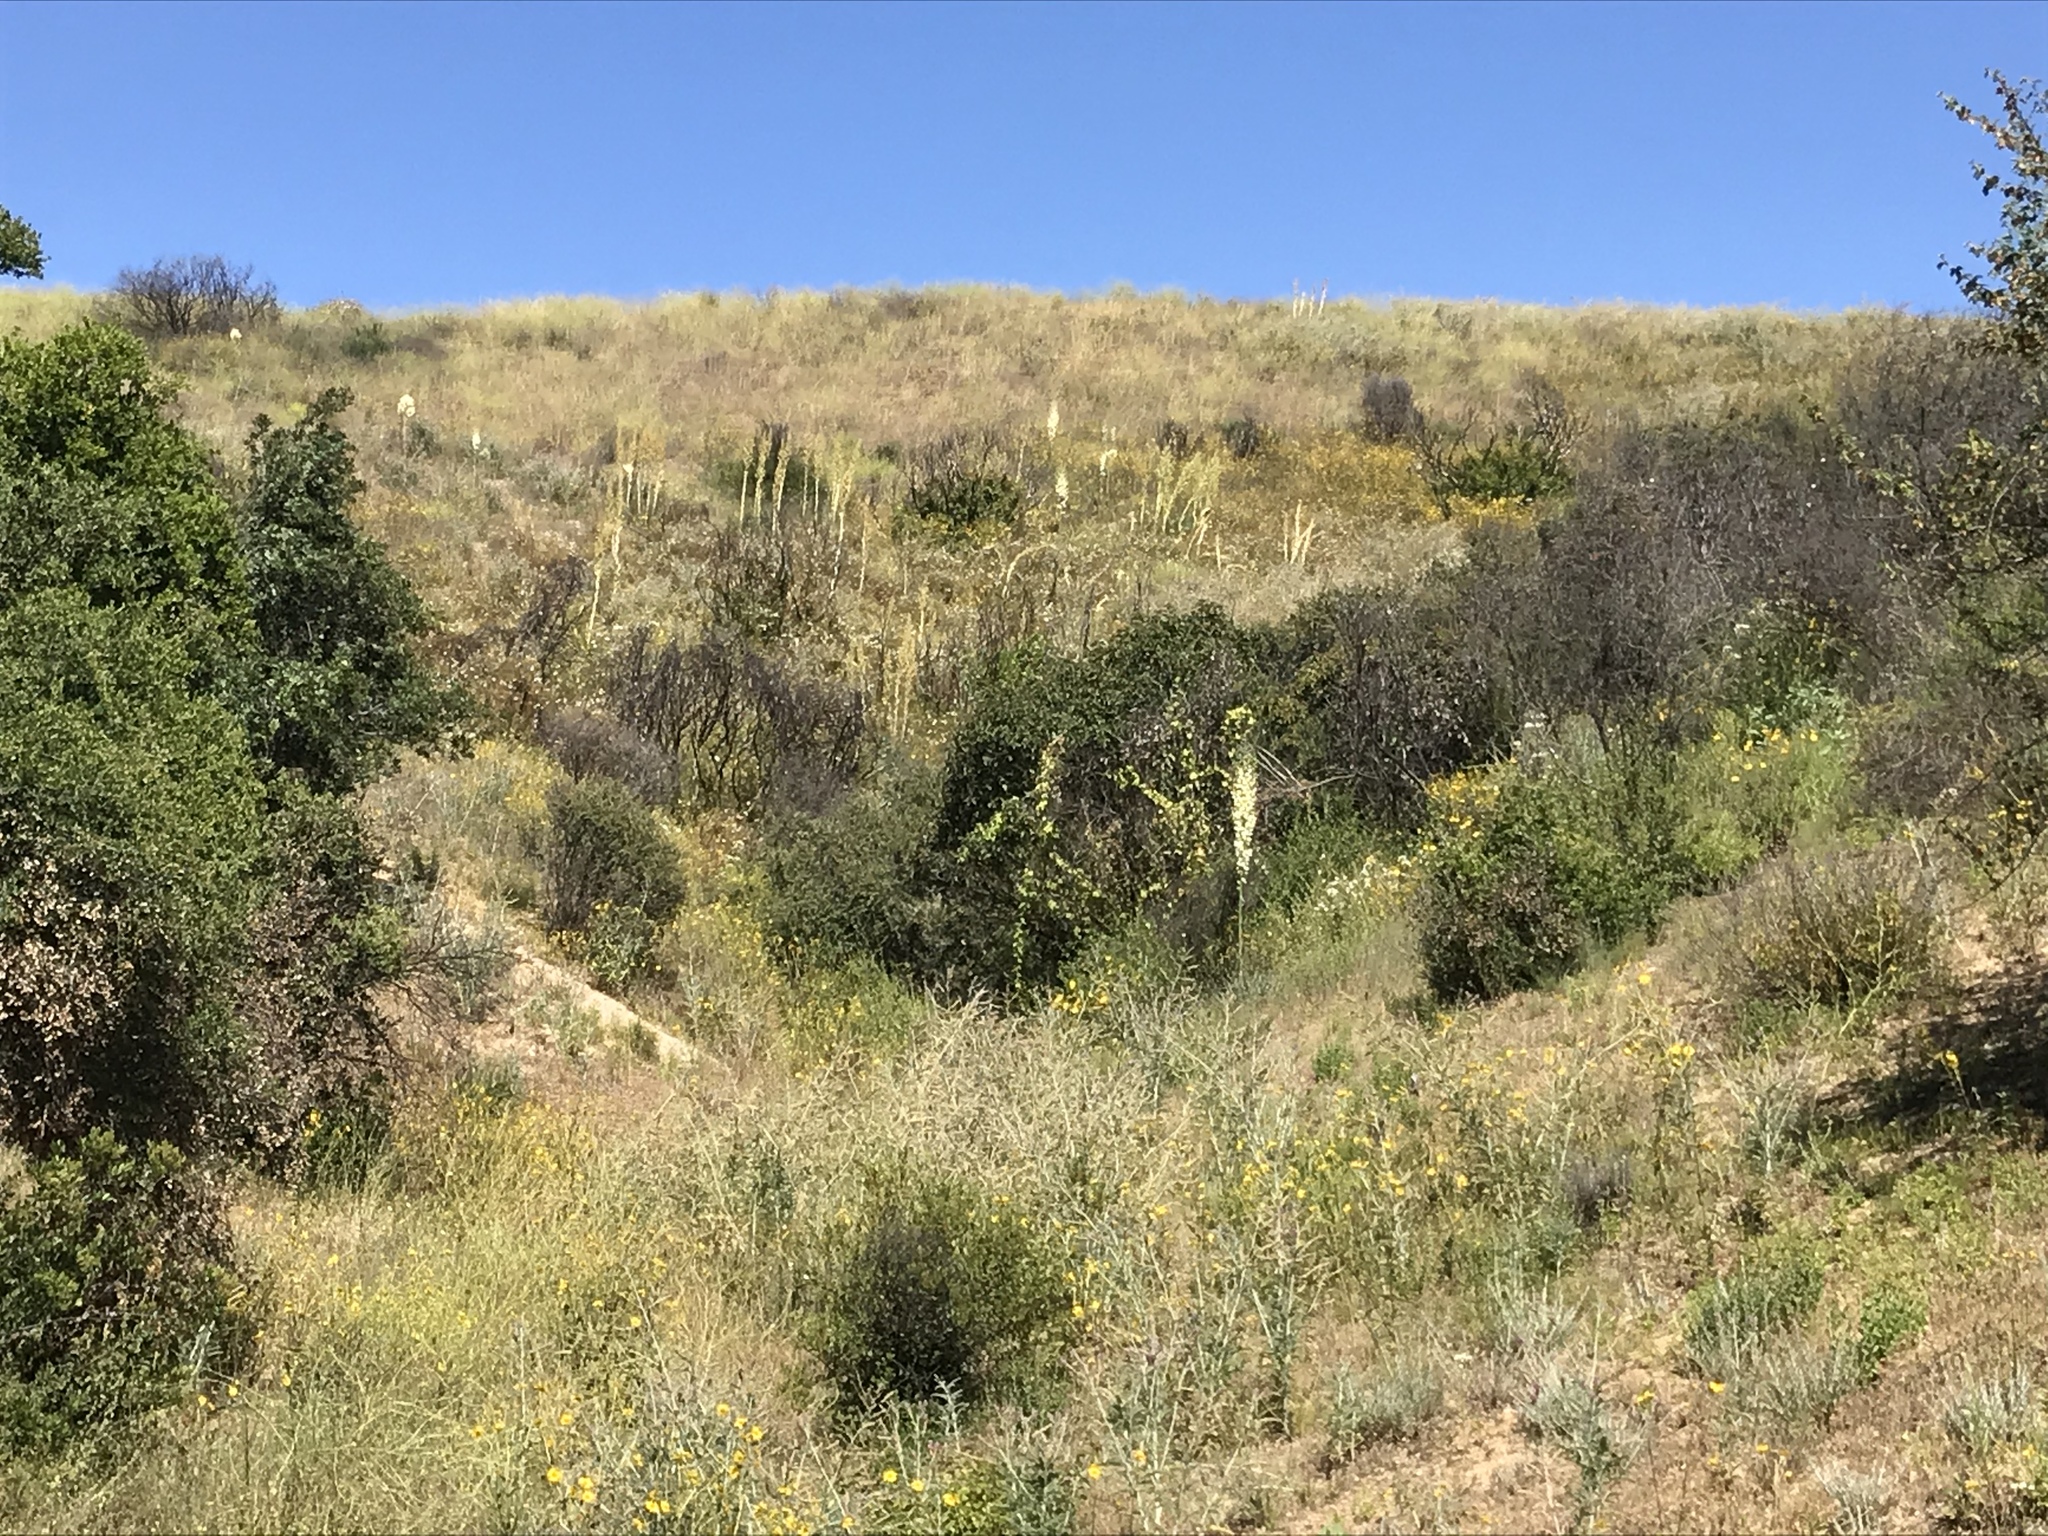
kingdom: Plantae
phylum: Tracheophyta
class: Liliopsida
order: Asparagales
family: Asparagaceae
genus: Nolina
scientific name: Nolina cismontana
